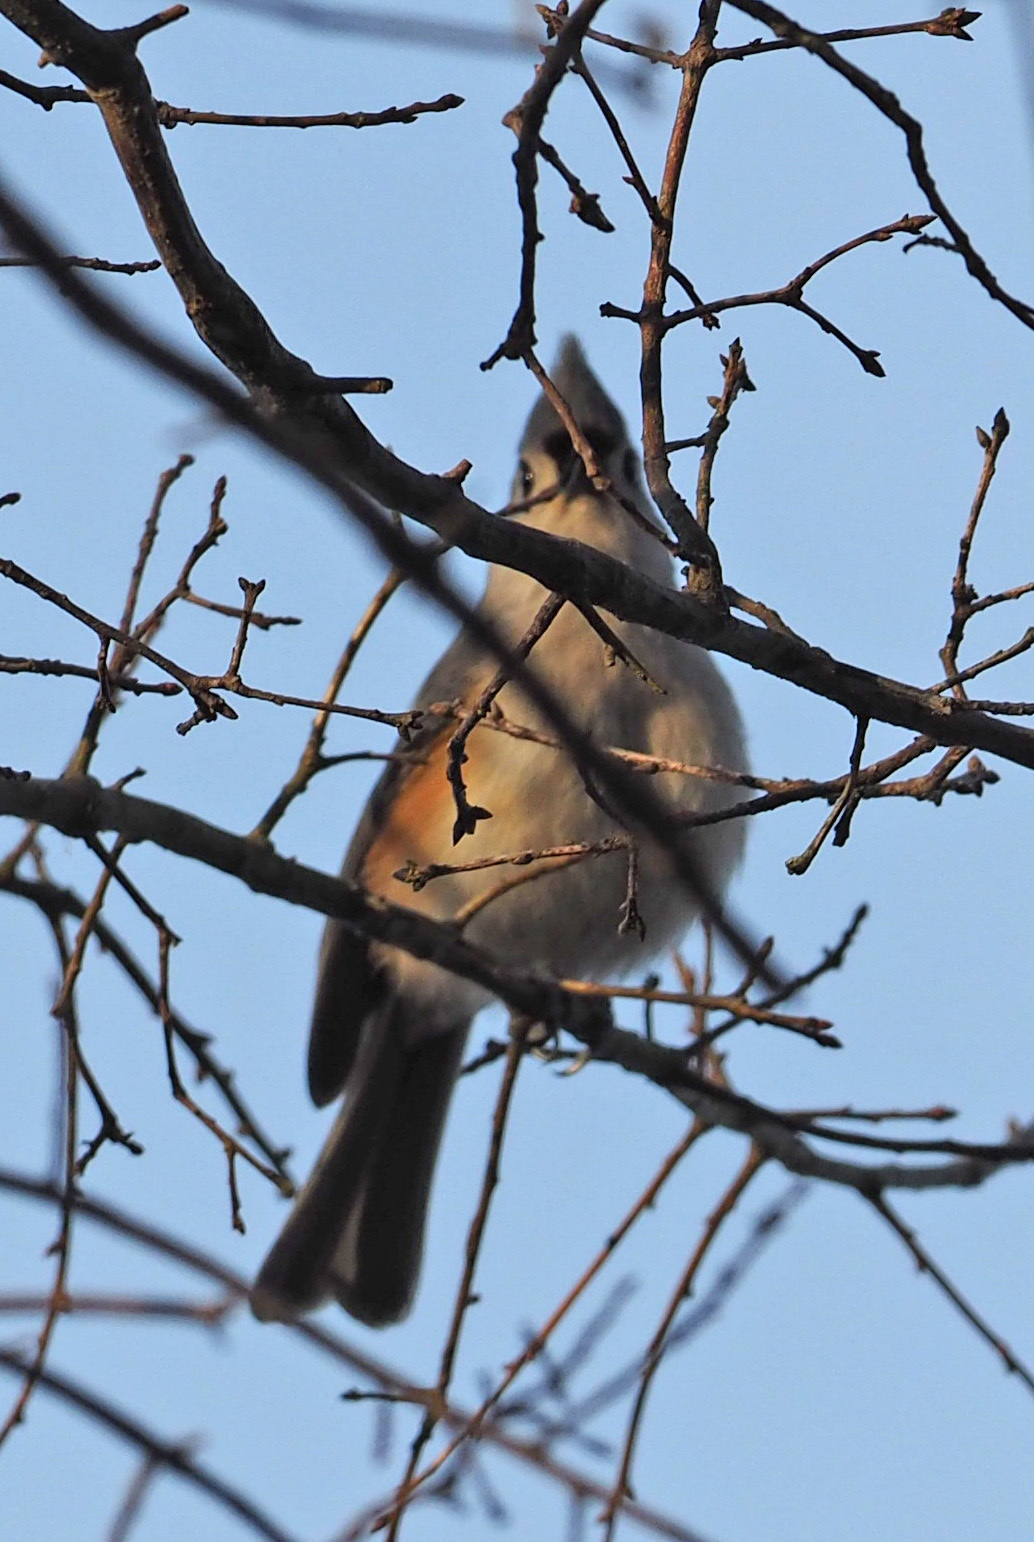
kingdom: Animalia
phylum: Chordata
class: Aves
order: Passeriformes
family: Paridae
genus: Baeolophus
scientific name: Baeolophus bicolor
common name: Tufted titmouse
